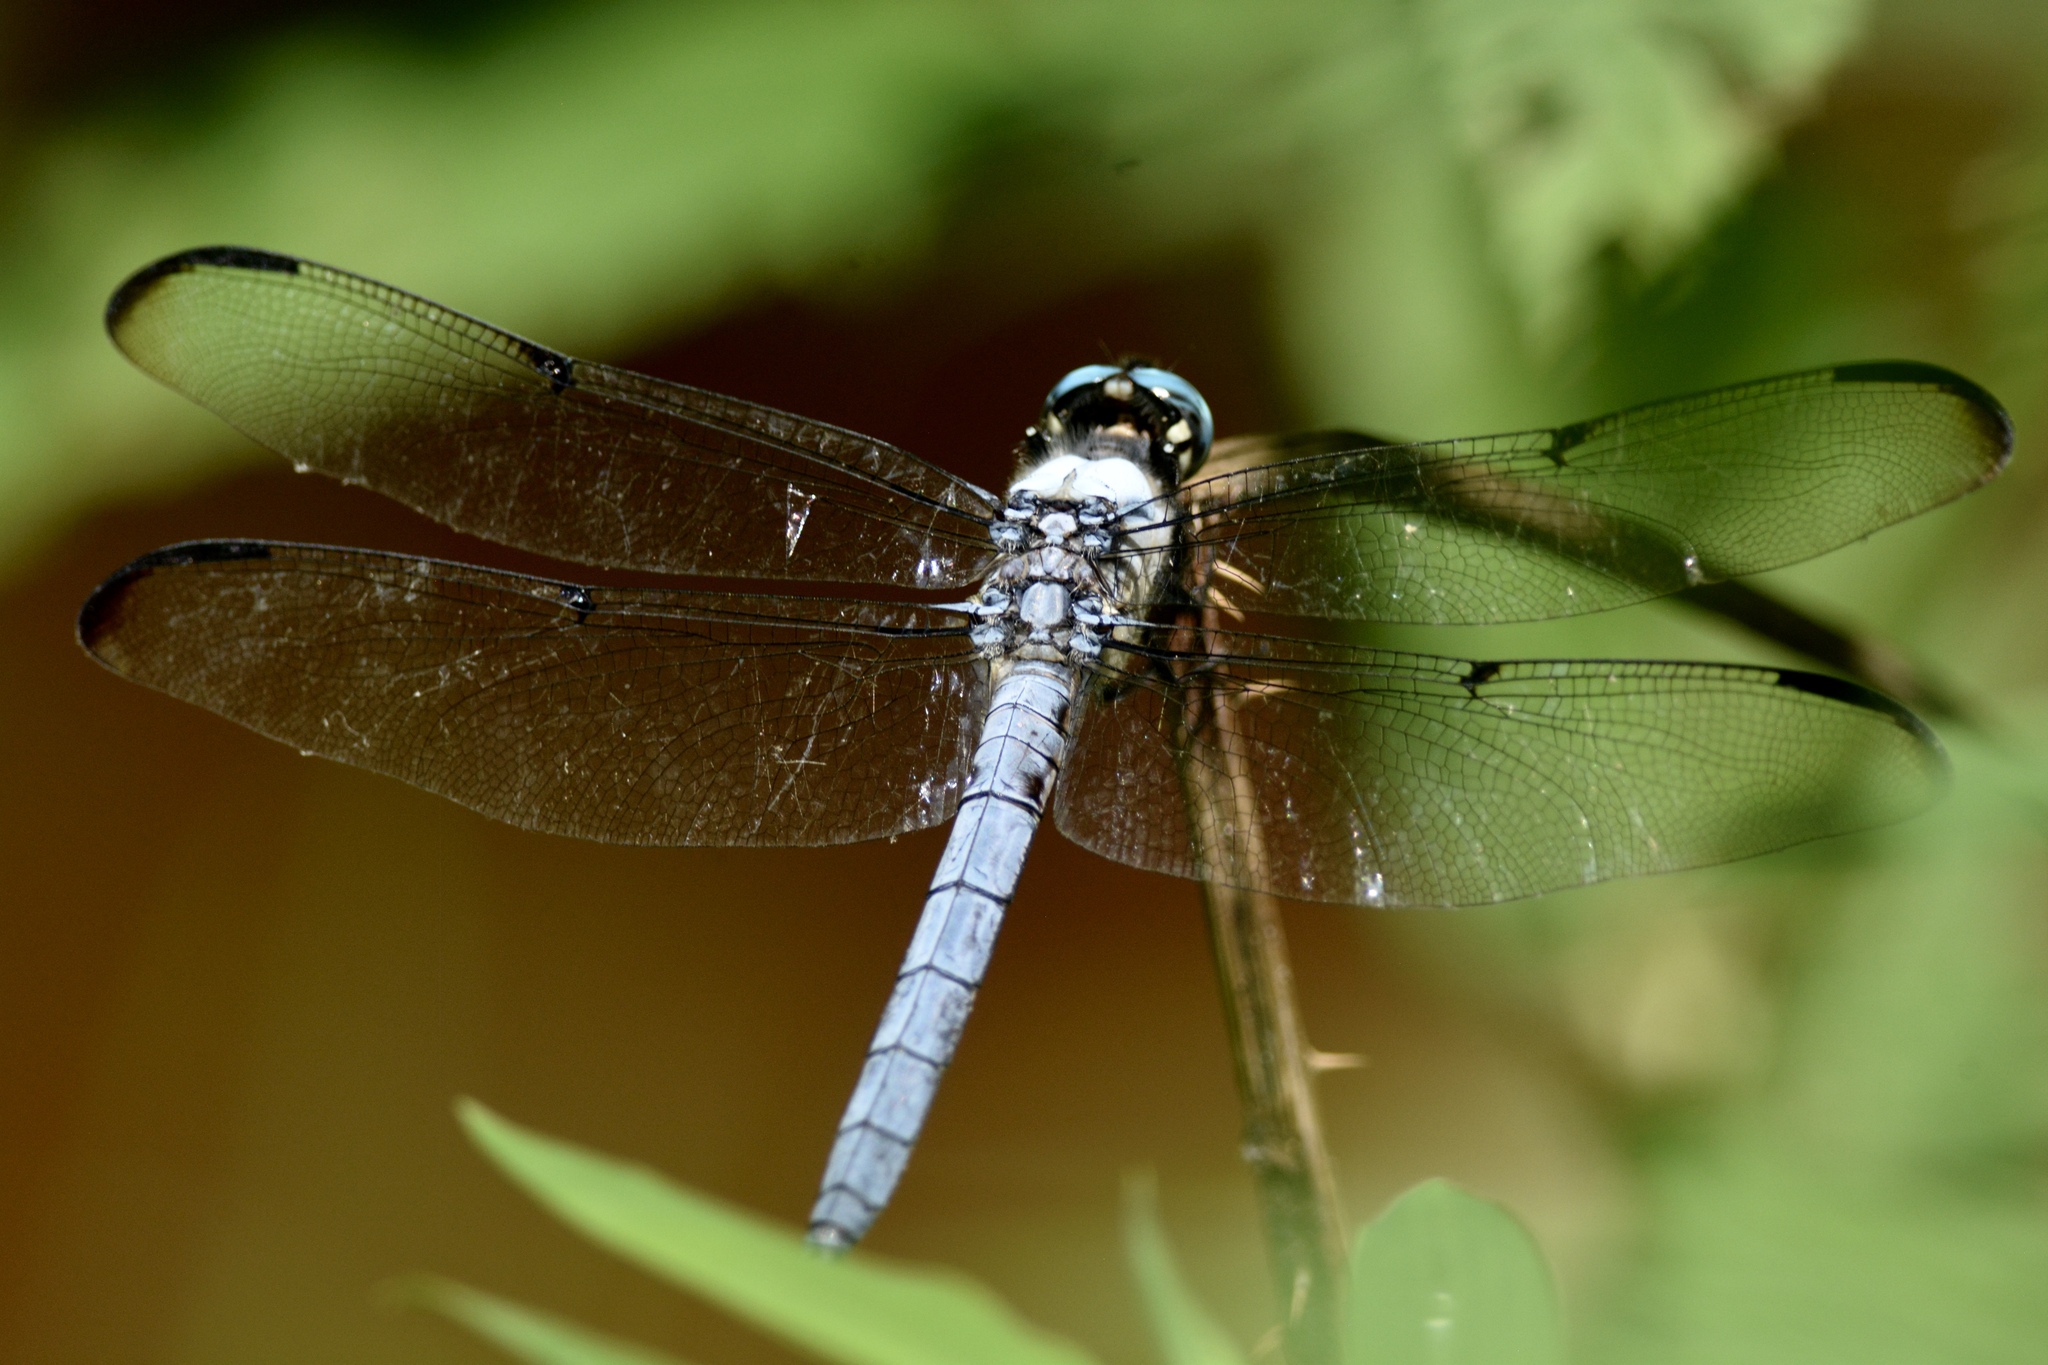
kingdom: Animalia
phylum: Arthropoda
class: Insecta
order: Odonata
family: Libellulidae
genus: Libellula
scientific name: Libellula vibrans
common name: Great blue skimmer
